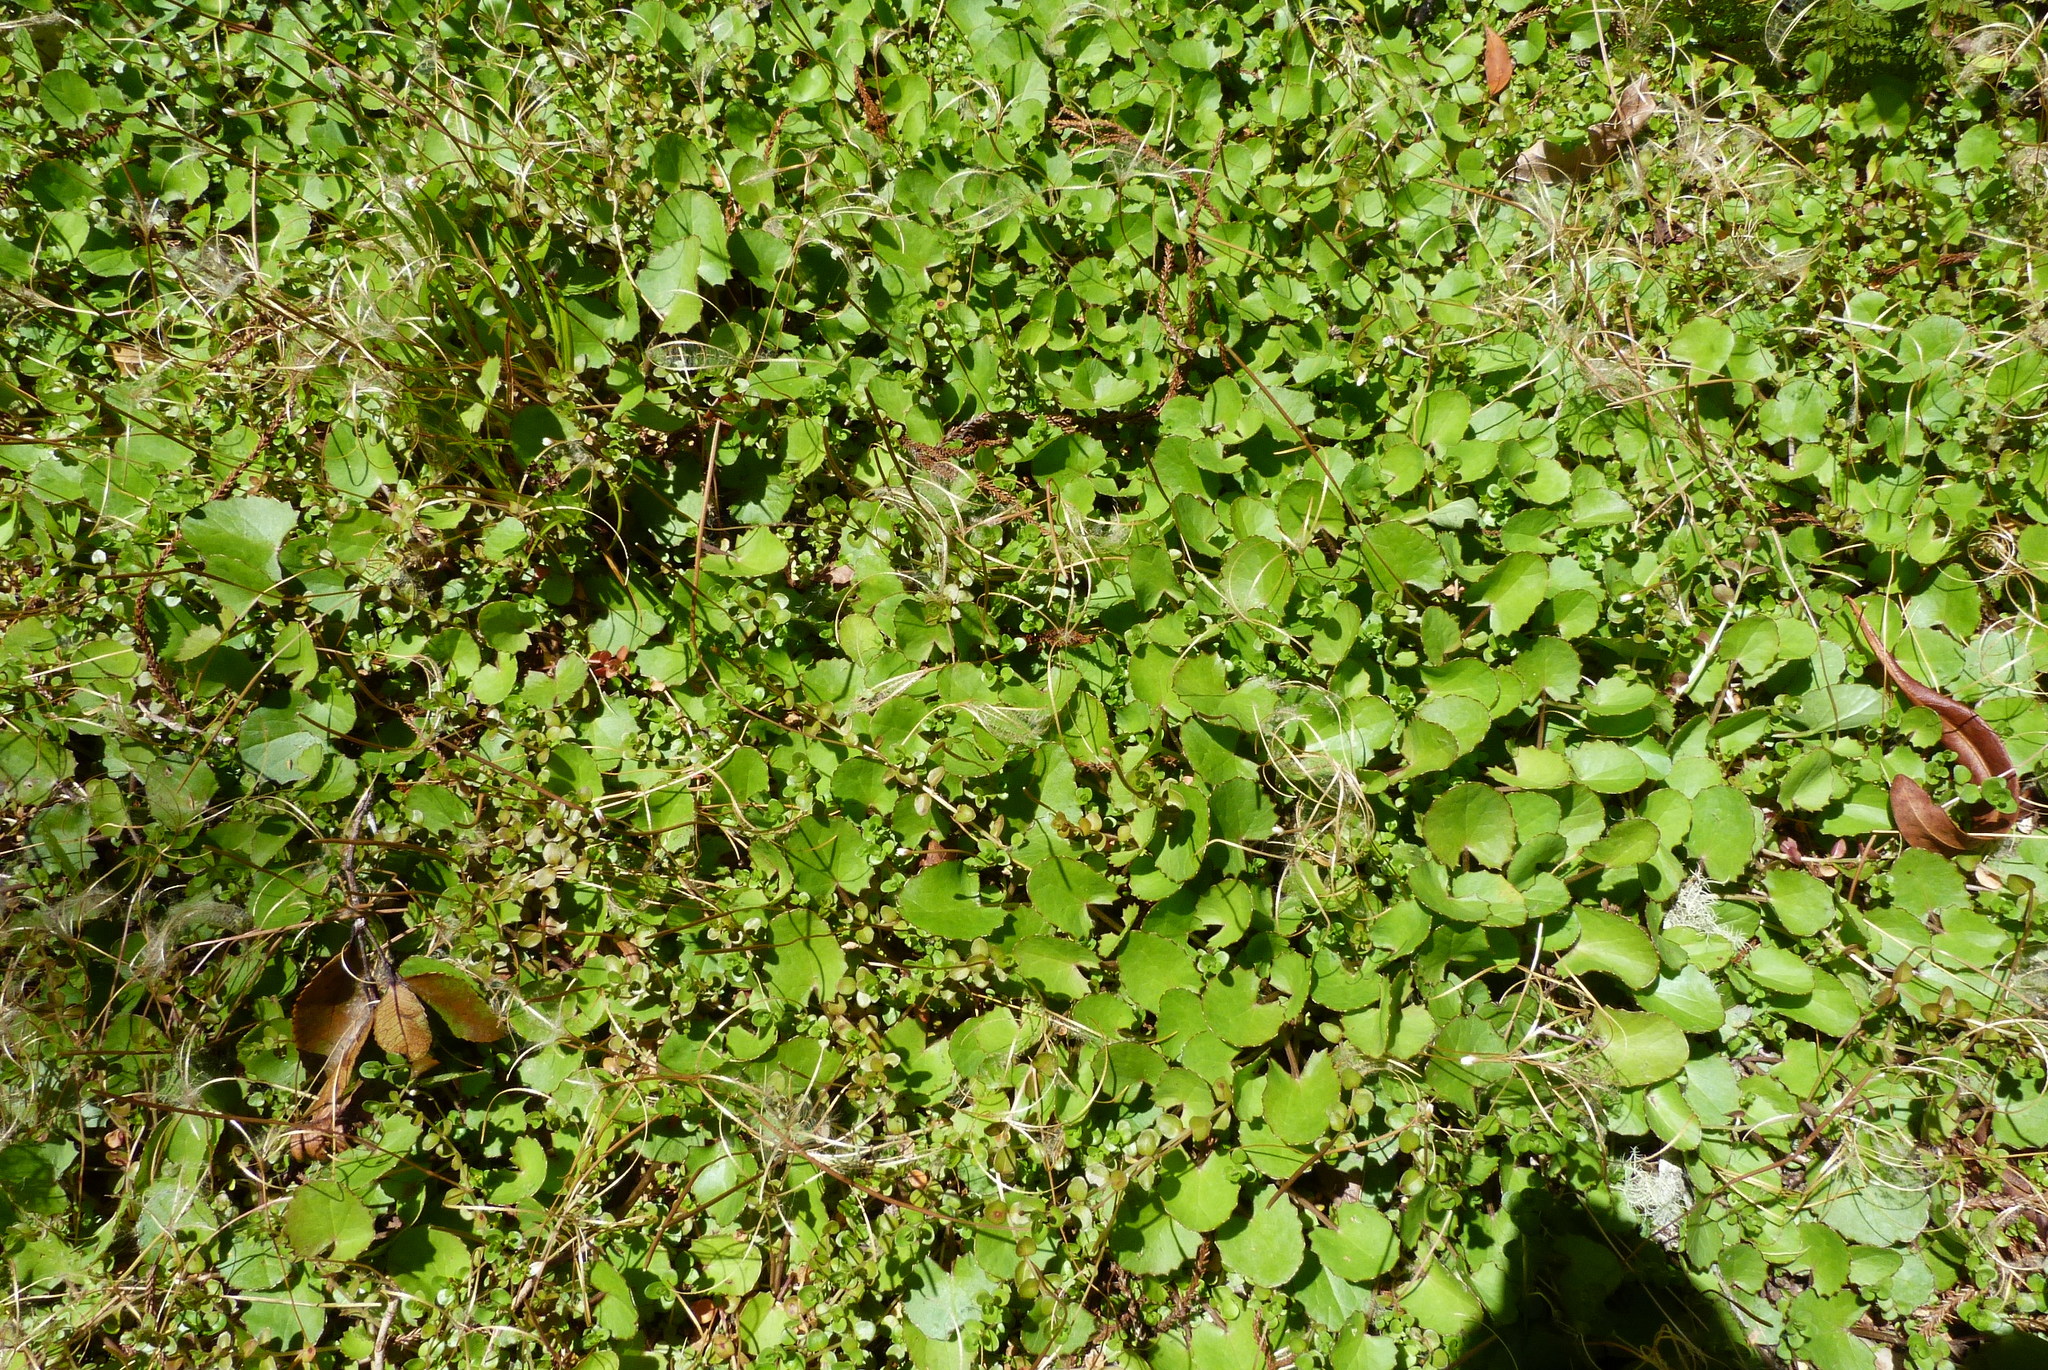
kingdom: Plantae
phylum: Tracheophyta
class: Magnoliopsida
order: Apiales
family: Apiaceae
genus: Centella
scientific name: Centella uniflora
